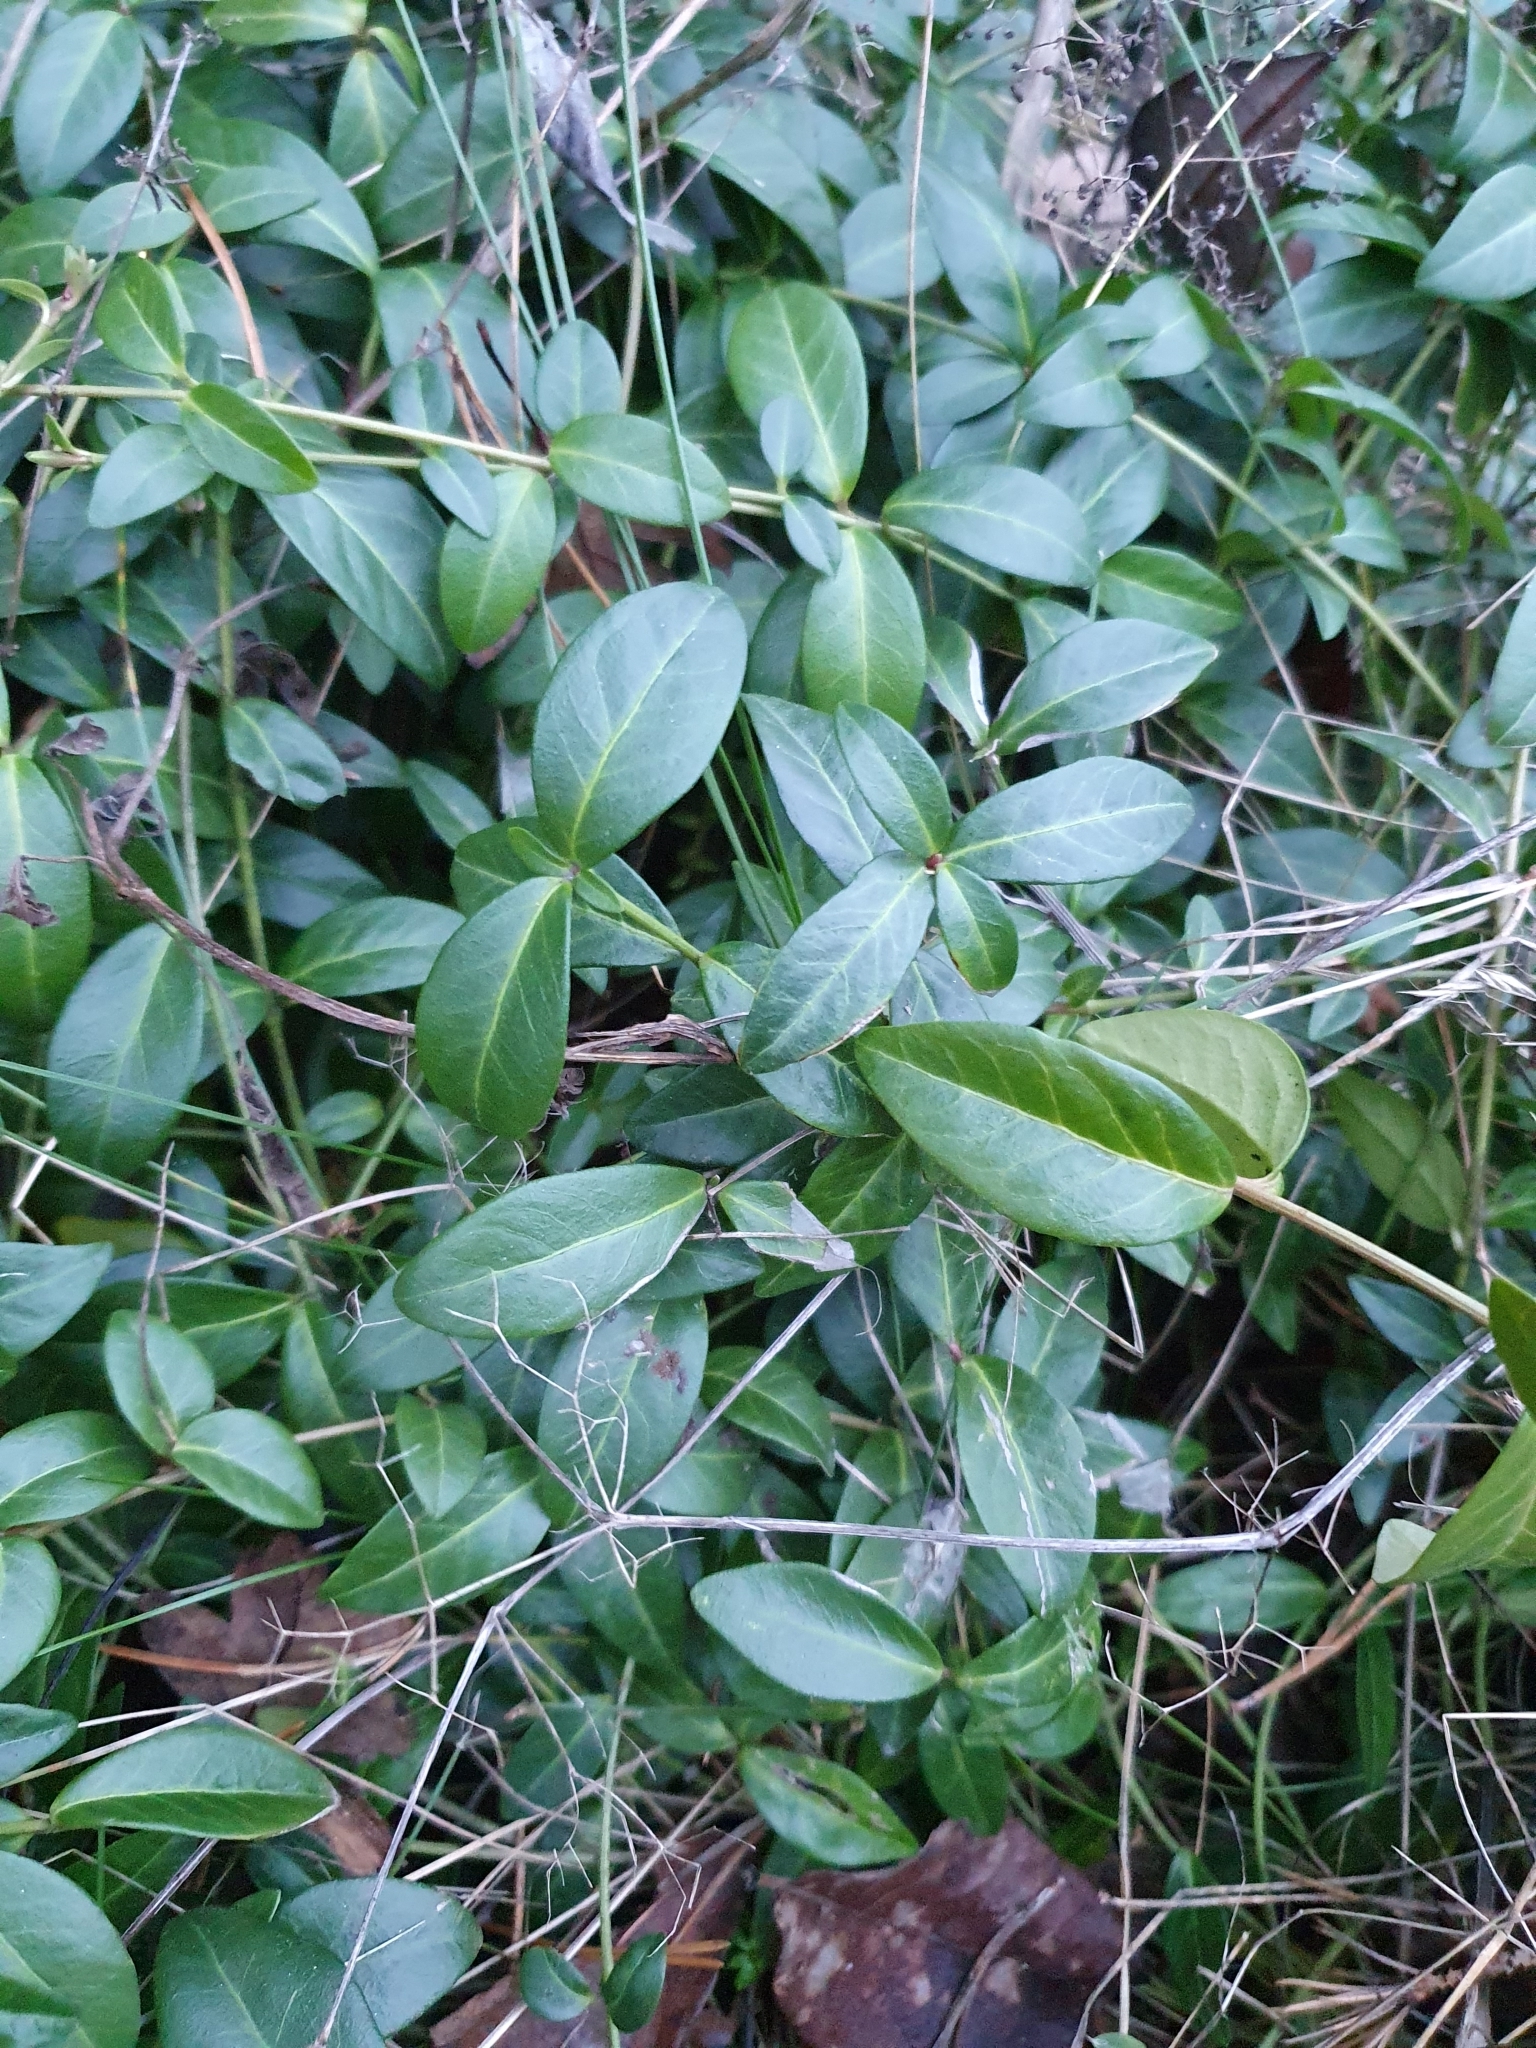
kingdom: Plantae
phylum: Tracheophyta
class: Magnoliopsida
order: Gentianales
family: Apocynaceae
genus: Vinca
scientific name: Vinca minor
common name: Lesser periwinkle
